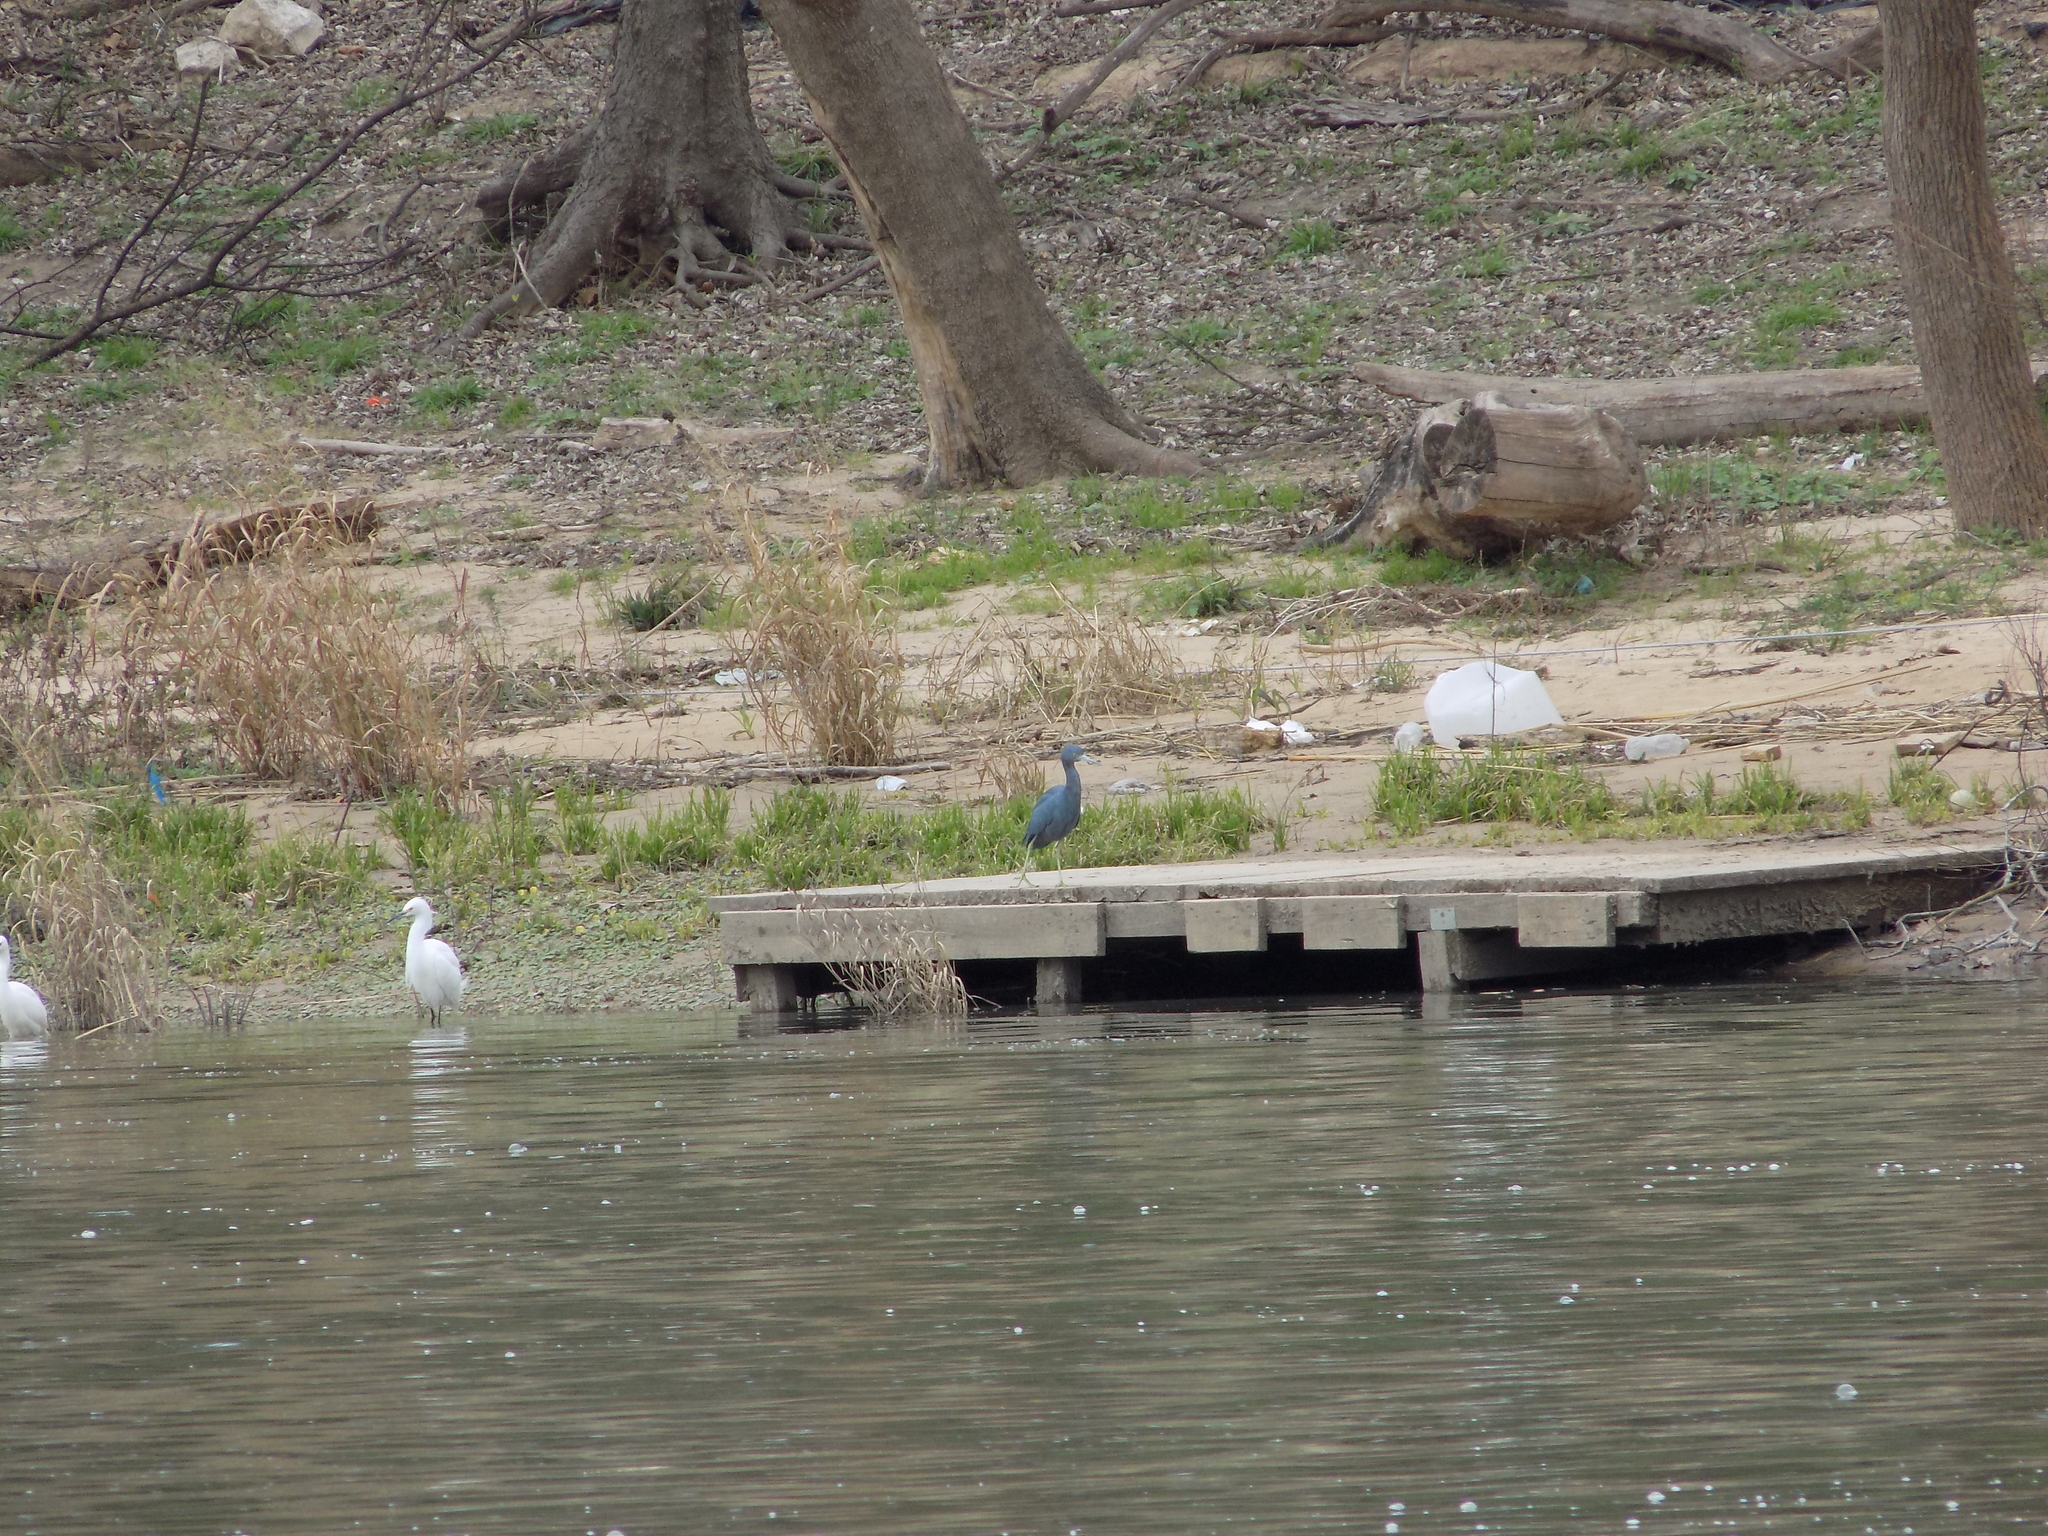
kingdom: Animalia
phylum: Chordata
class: Aves
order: Pelecaniformes
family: Ardeidae
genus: Egretta
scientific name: Egretta caerulea
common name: Little blue heron
